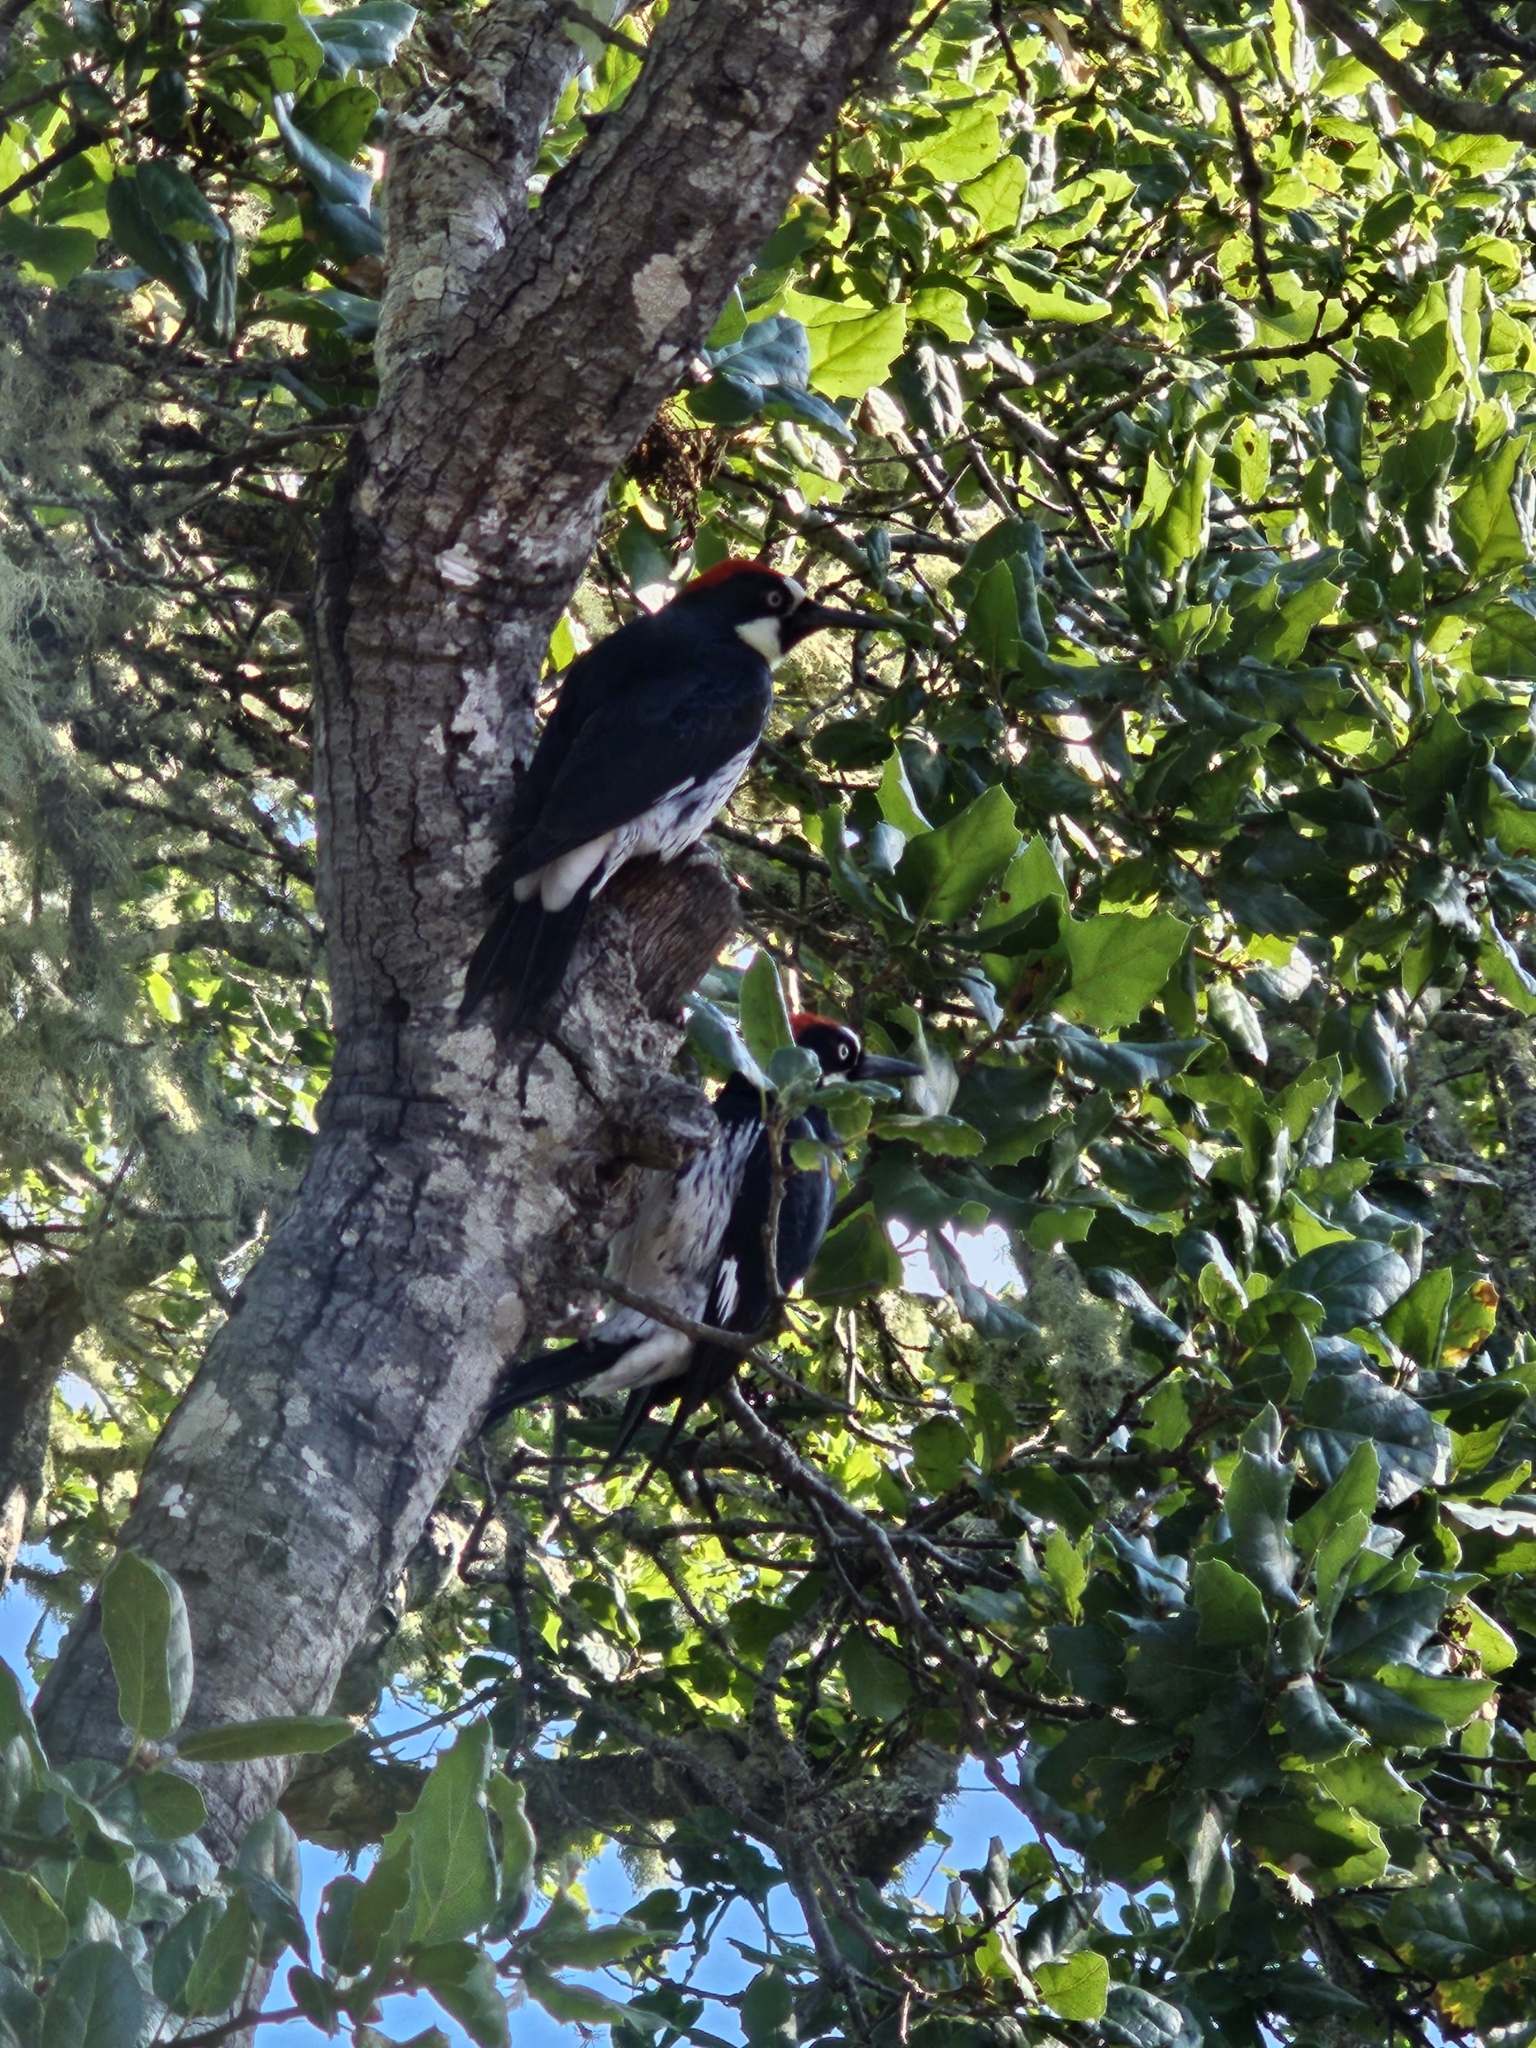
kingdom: Animalia
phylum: Chordata
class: Aves
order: Piciformes
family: Picidae
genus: Melanerpes
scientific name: Melanerpes formicivorus
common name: Acorn woodpecker
